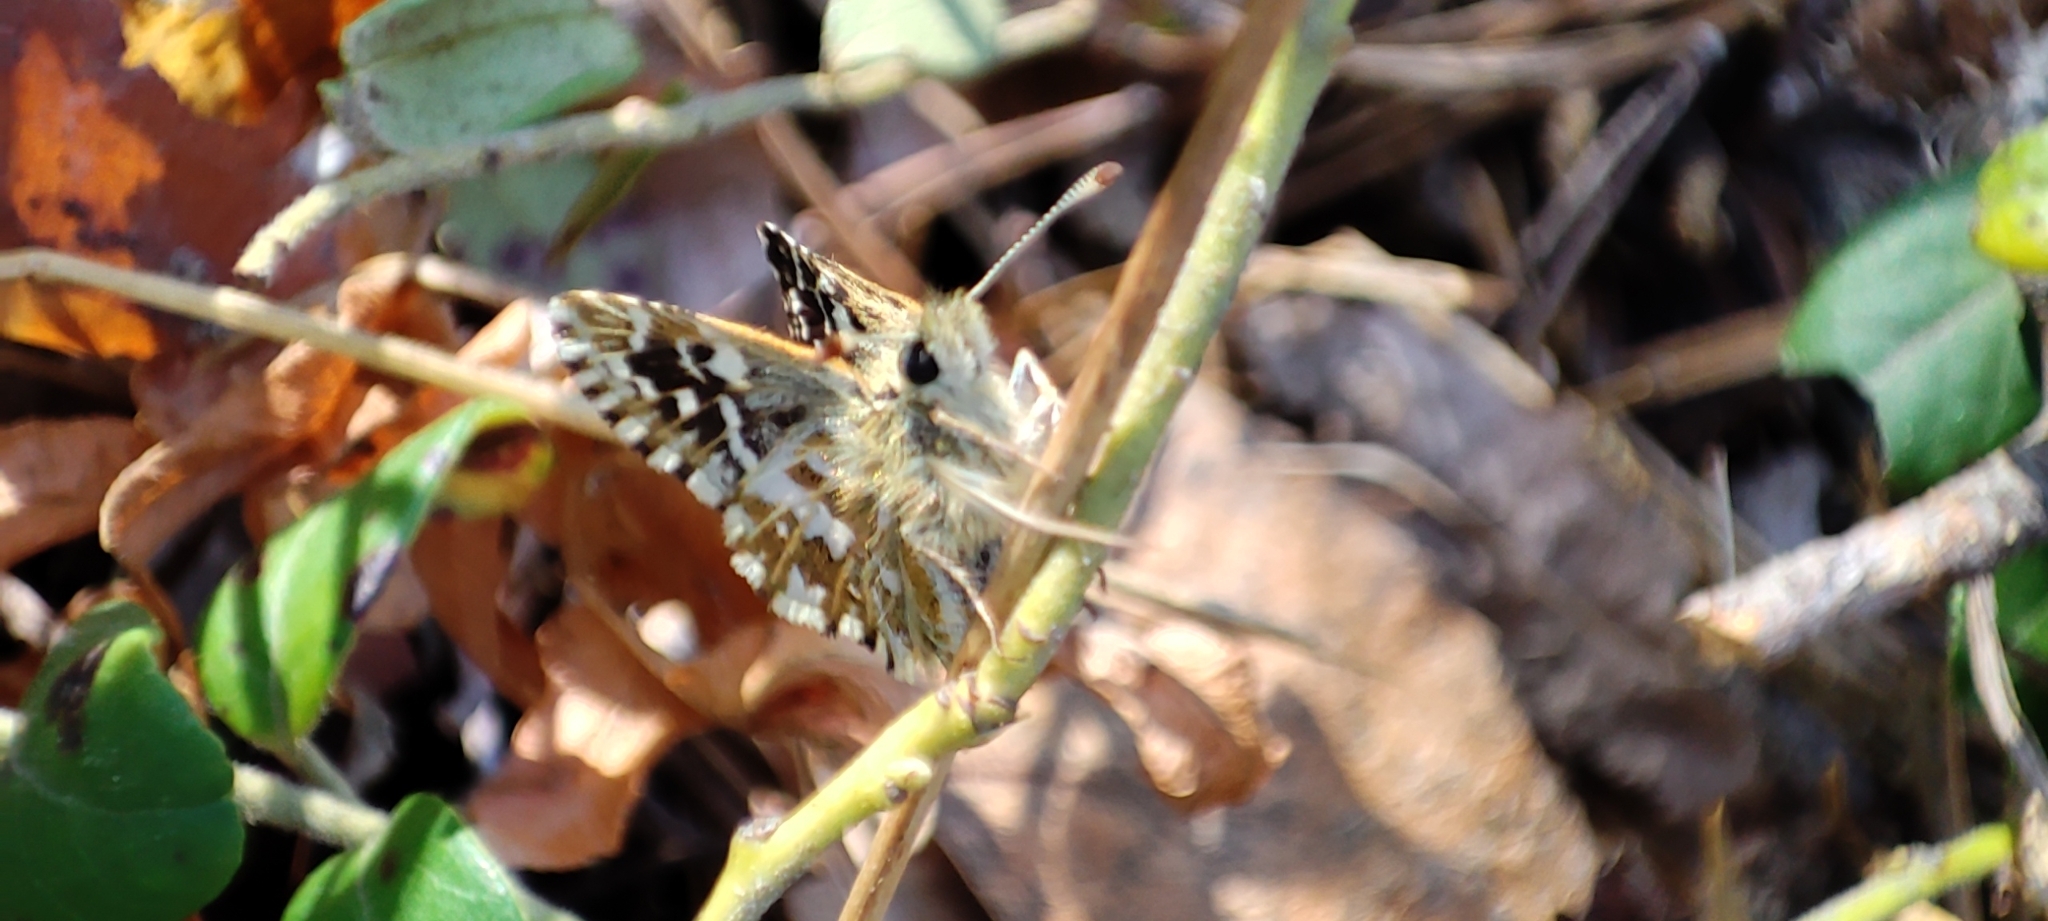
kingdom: Animalia
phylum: Arthropoda
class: Insecta
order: Lepidoptera
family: Hesperiidae
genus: Pyrgus
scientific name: Pyrgus malvae
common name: Grizzled skipper
